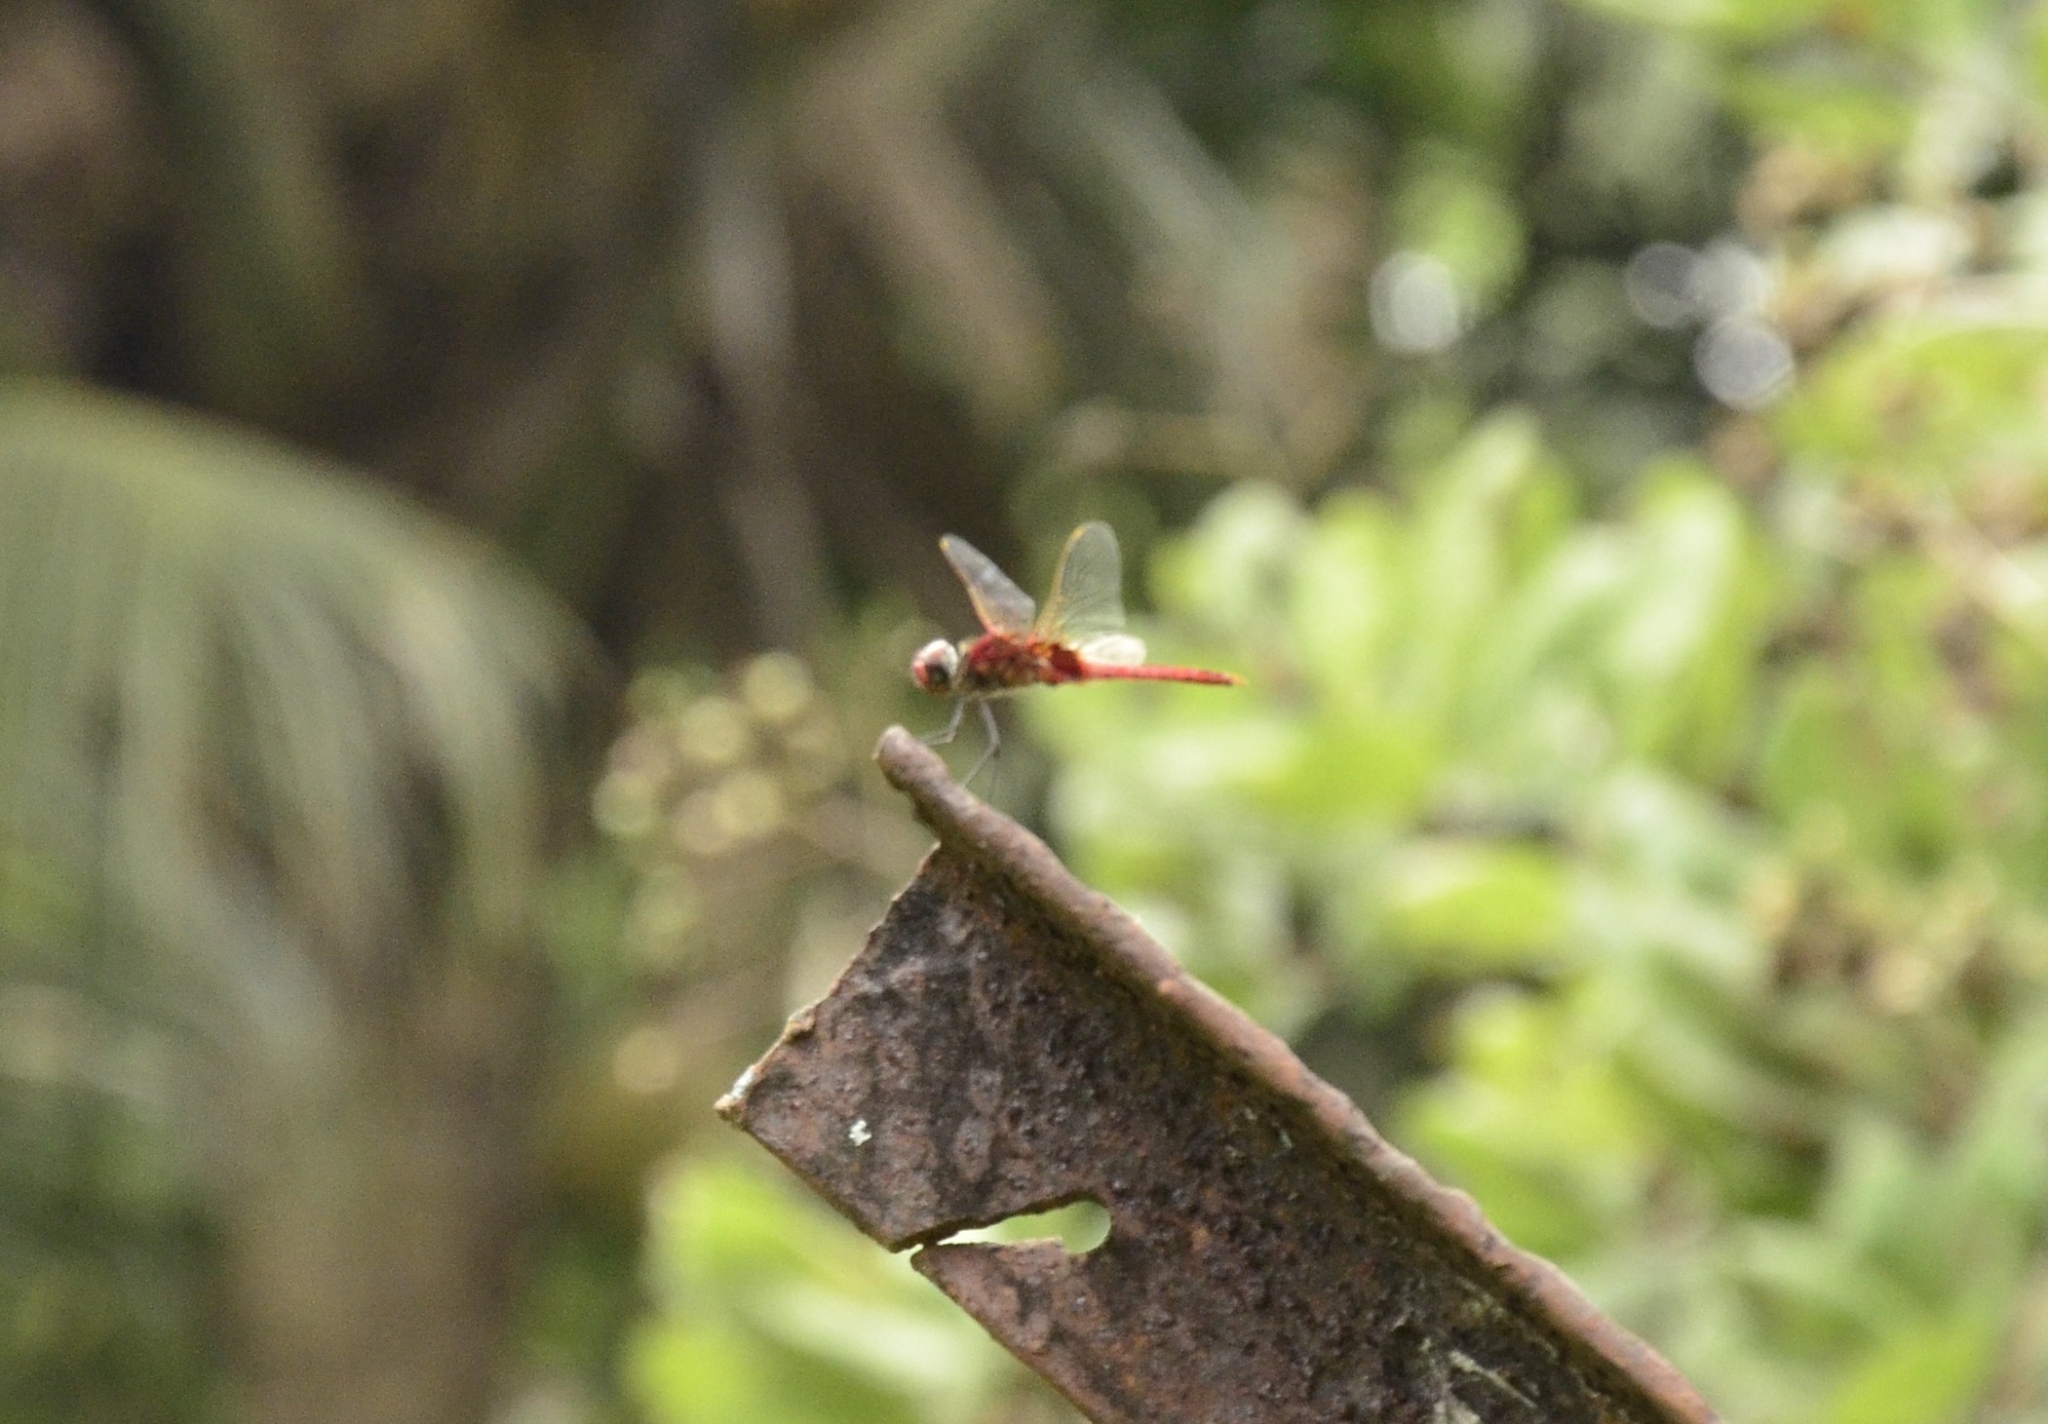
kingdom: Animalia
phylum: Arthropoda
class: Insecta
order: Odonata
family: Libellulidae
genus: Urothemis
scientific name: Urothemis signata
